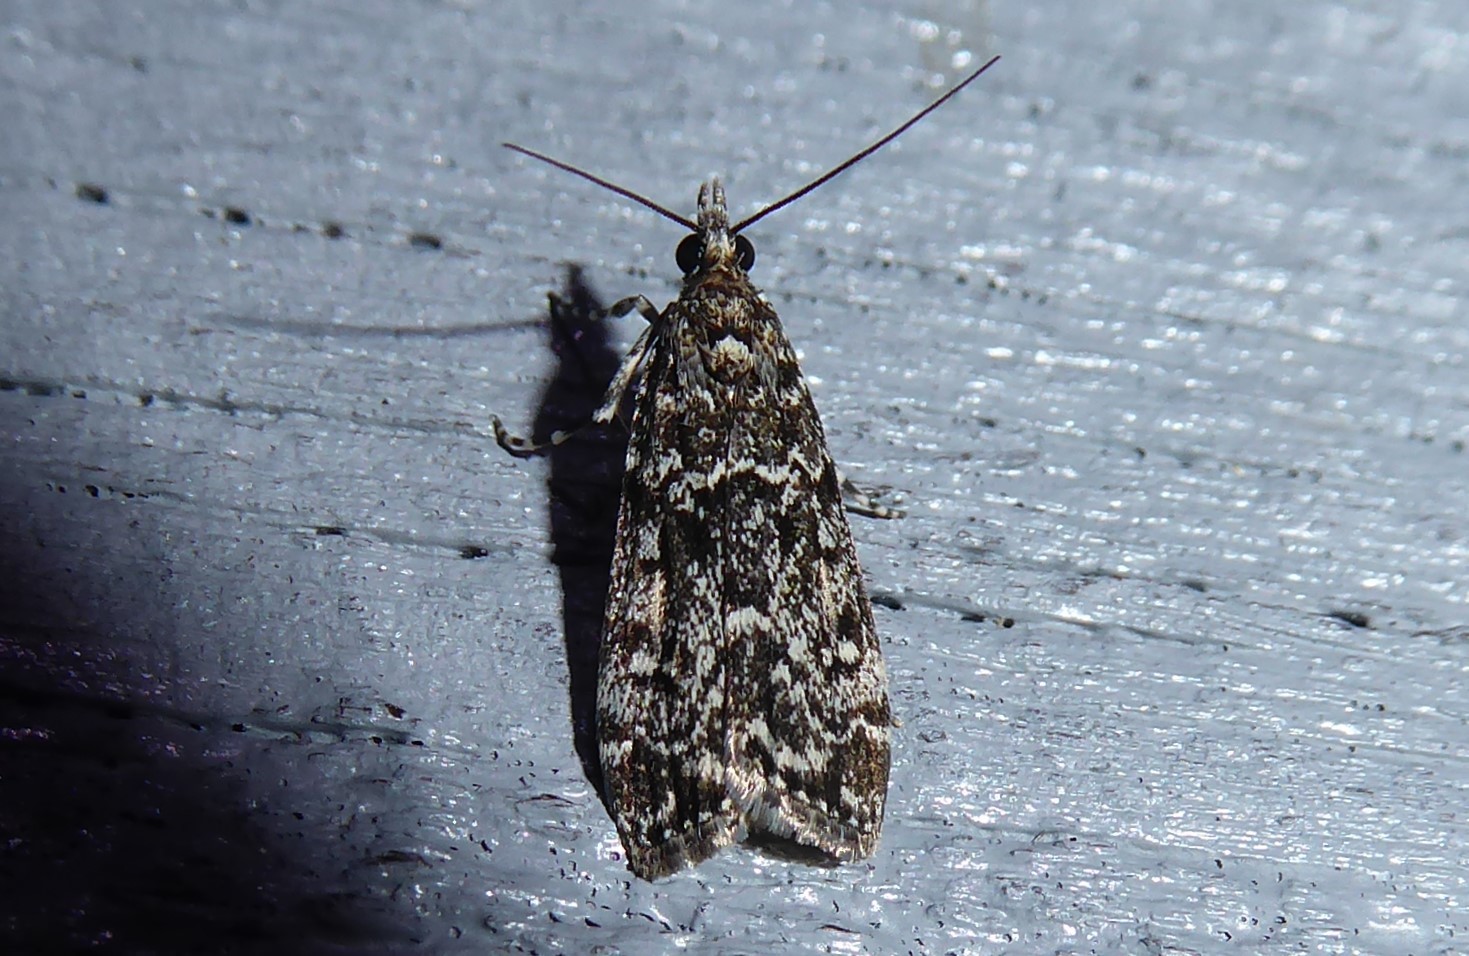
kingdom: Animalia
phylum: Arthropoda
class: Insecta
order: Lepidoptera
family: Crambidae
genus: Eudonia
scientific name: Eudonia philerga
